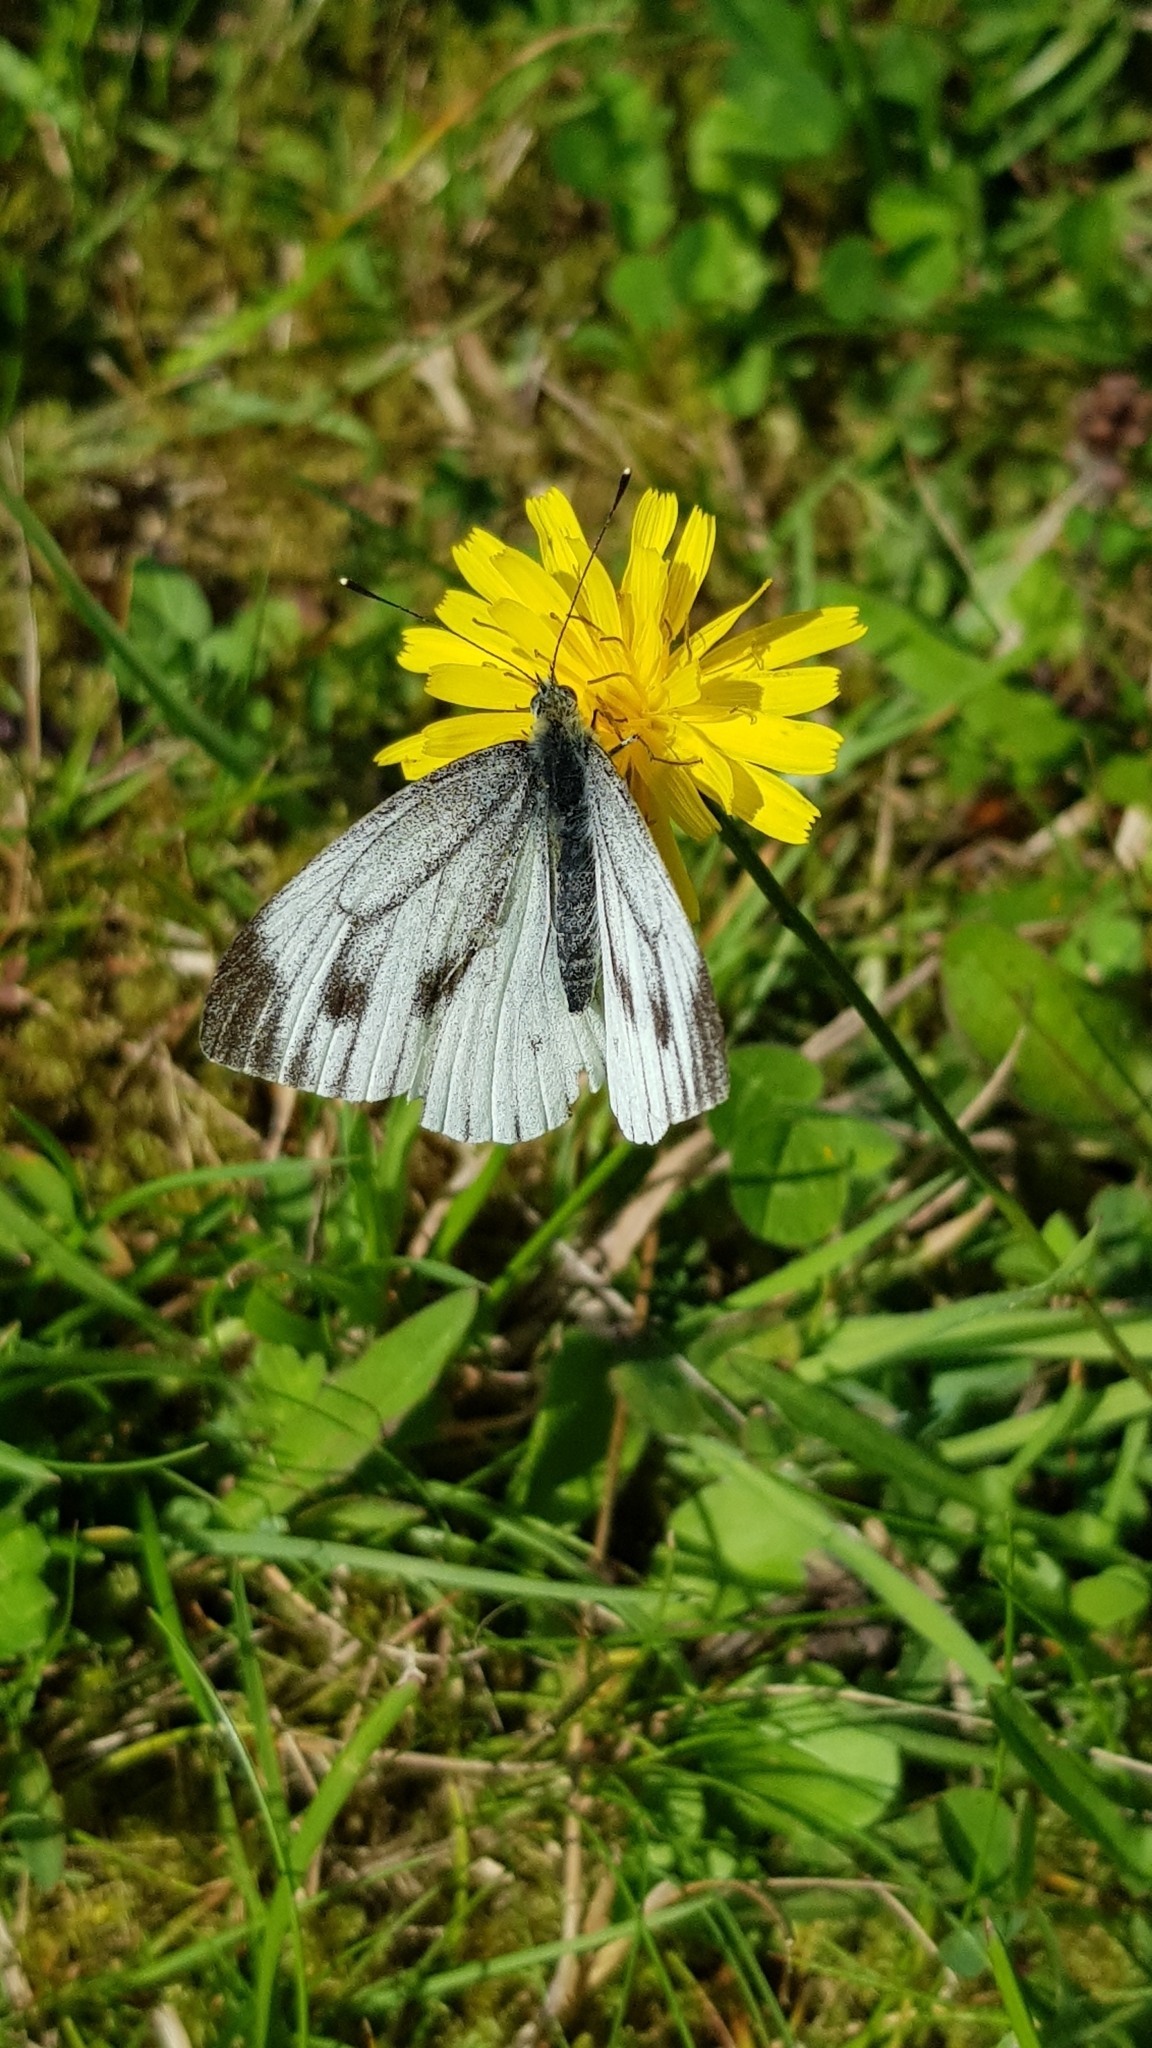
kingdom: Animalia
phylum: Arthropoda
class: Insecta
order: Lepidoptera
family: Pieridae
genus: Pieris
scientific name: Pieris napi
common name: Green-veined white
